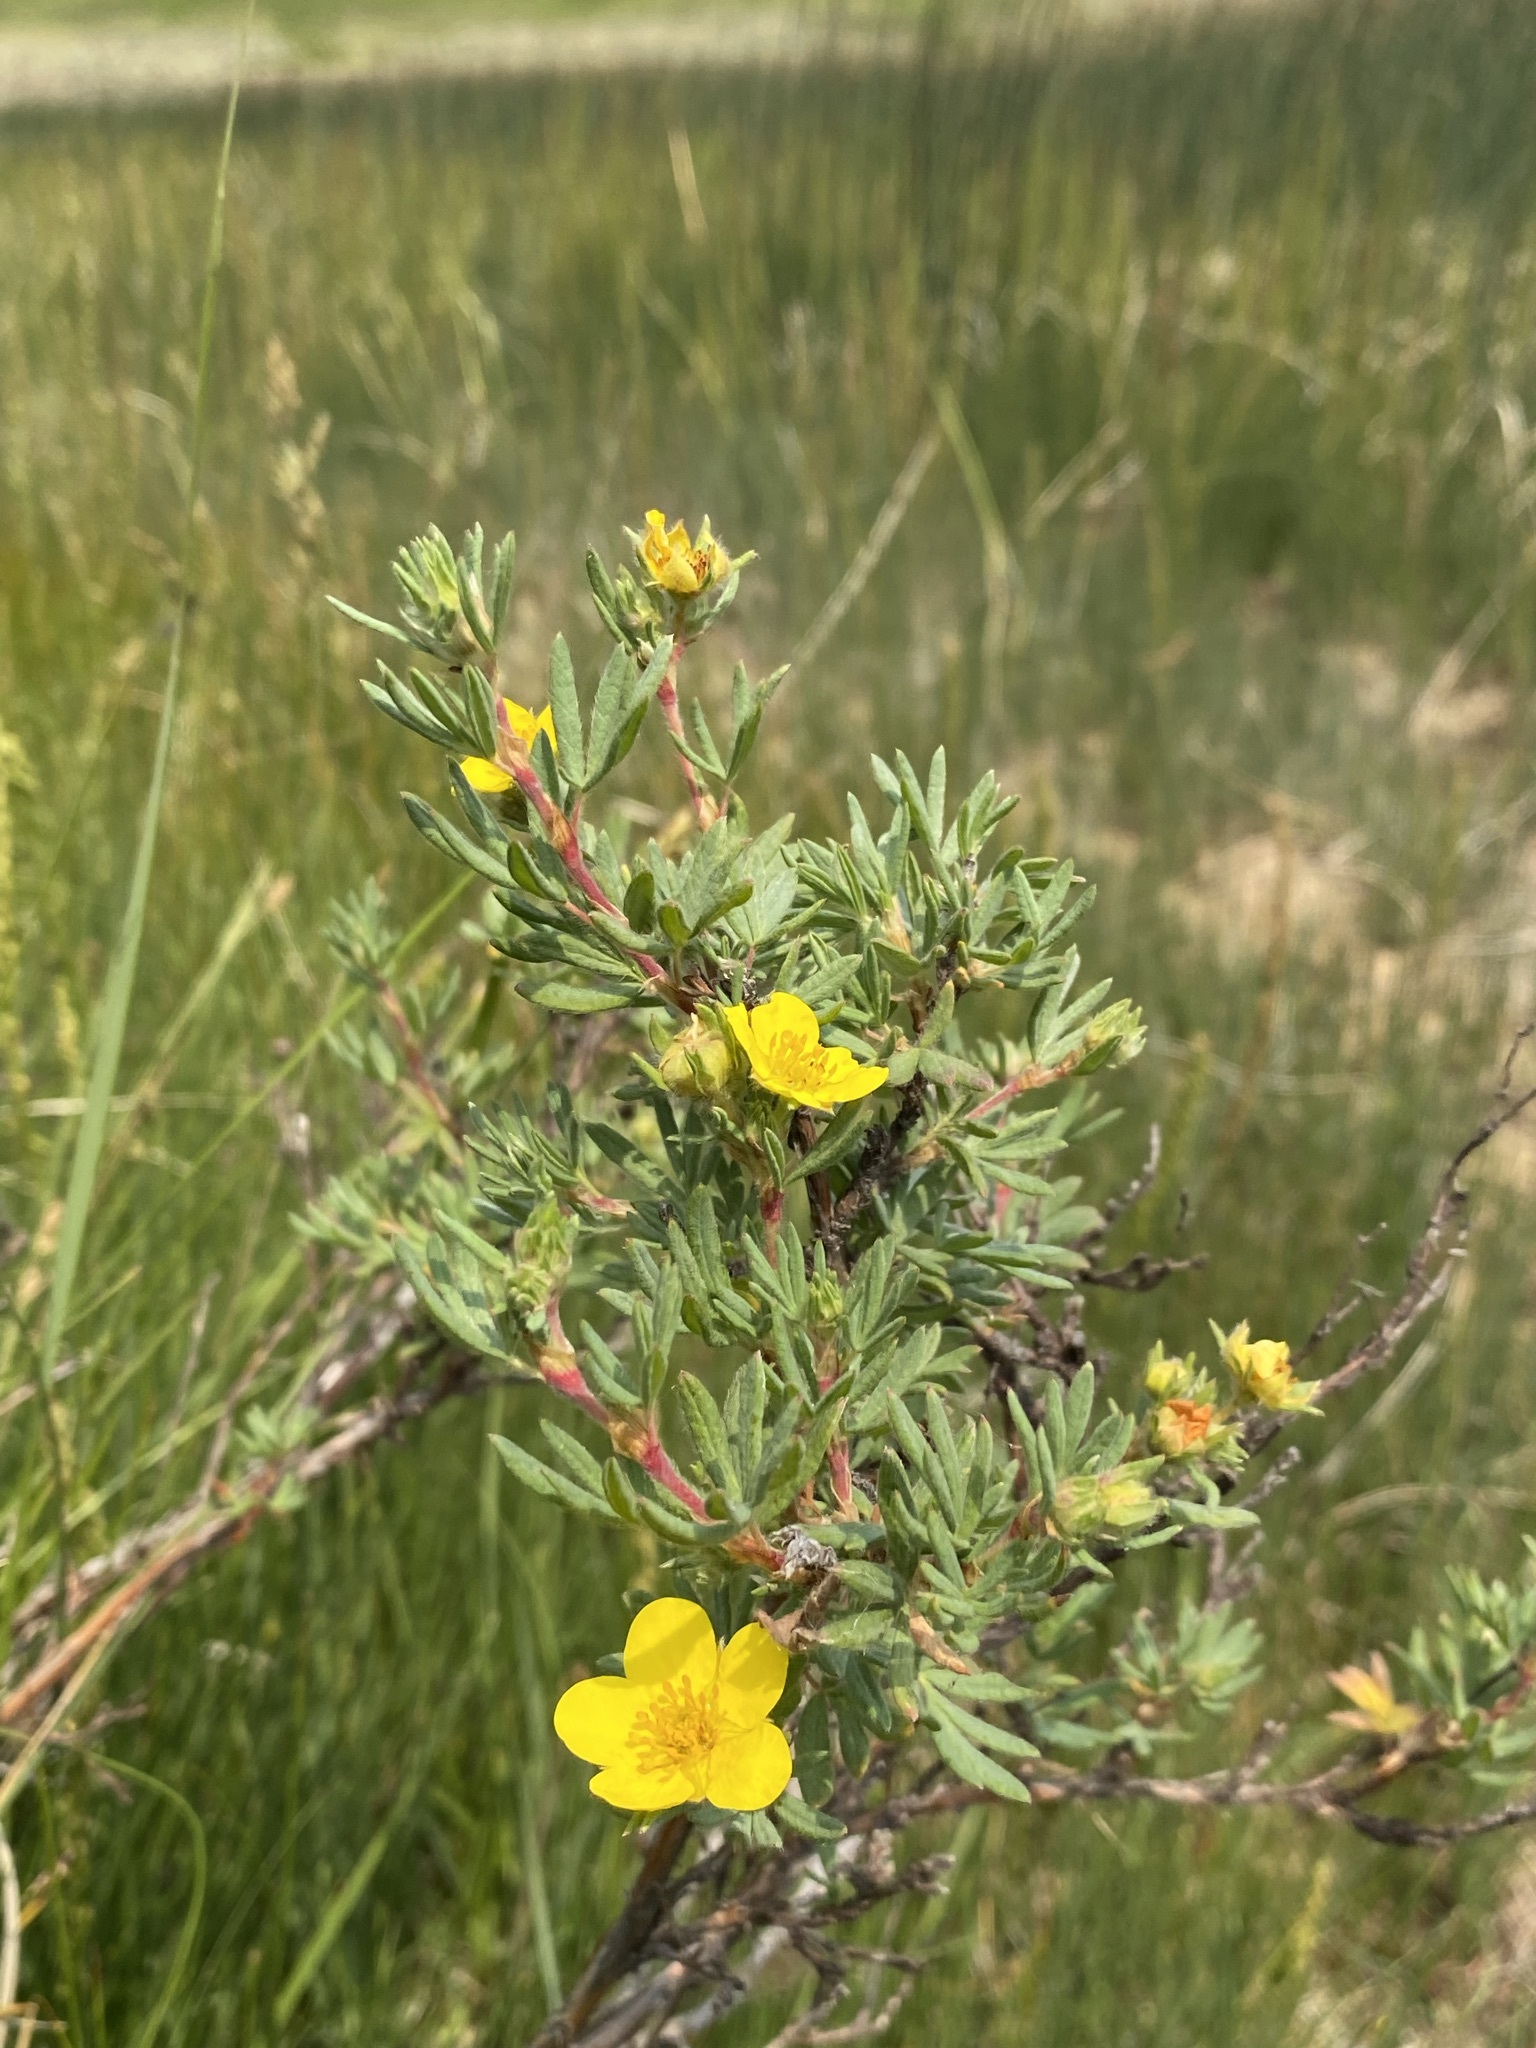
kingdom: Plantae
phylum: Tracheophyta
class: Magnoliopsida
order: Rosales
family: Rosaceae
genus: Dasiphora
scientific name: Dasiphora fruticosa
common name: Shrubby cinquefoil
